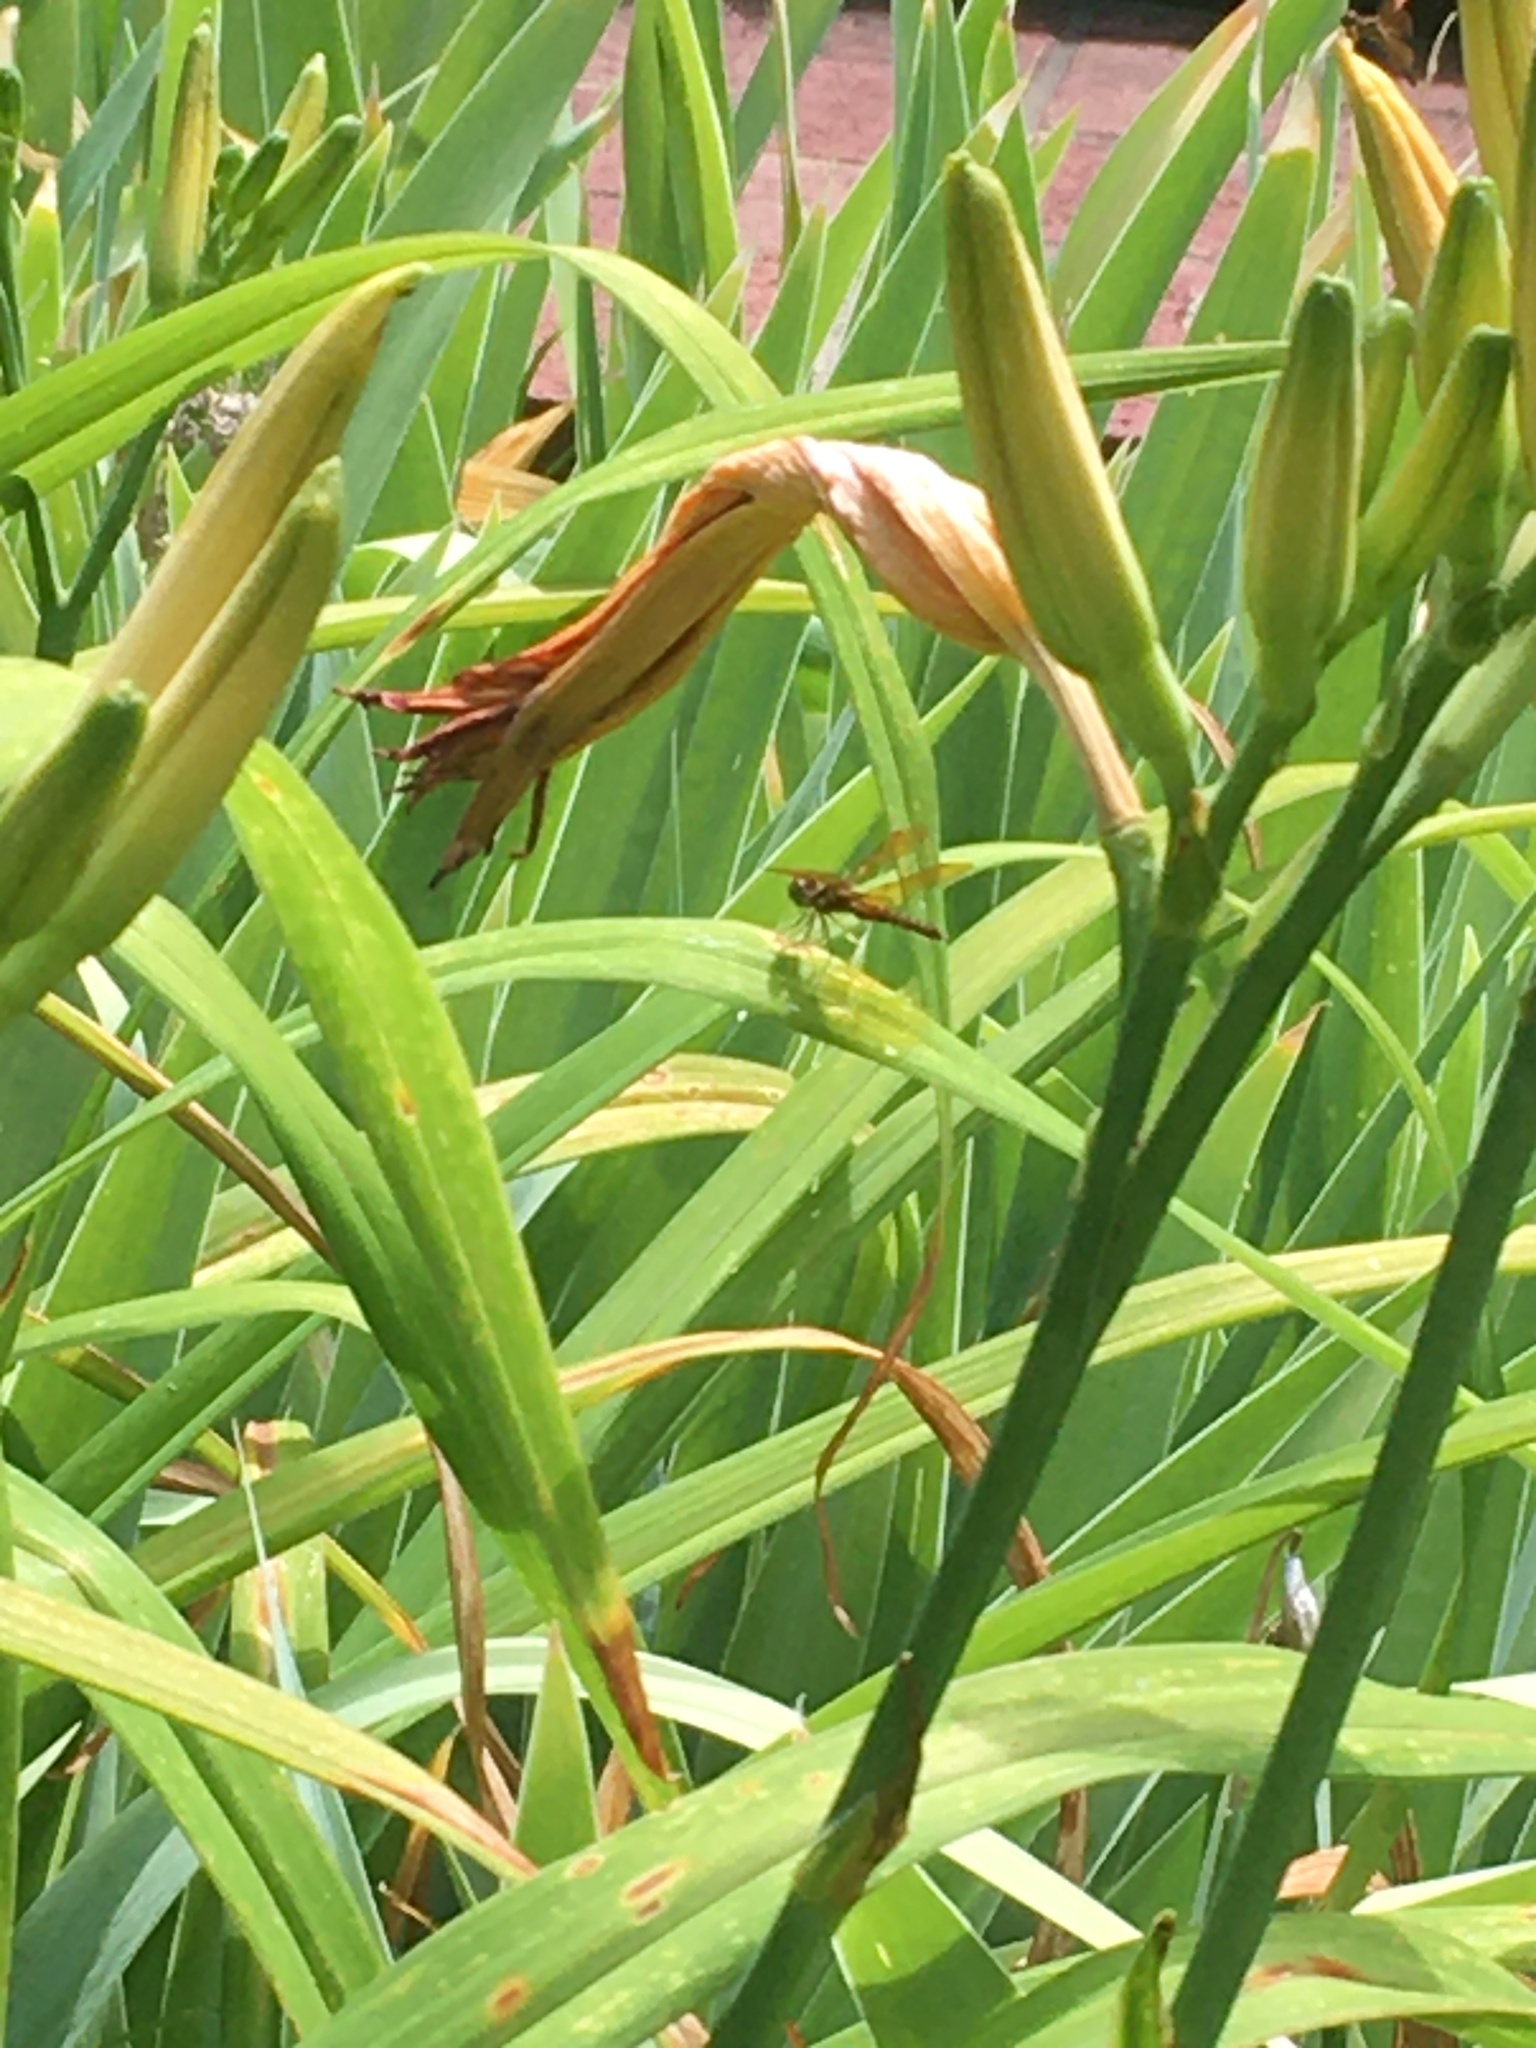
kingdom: Animalia
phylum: Arthropoda
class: Insecta
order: Odonata
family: Libellulidae
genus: Perithemis
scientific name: Perithemis tenera
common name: Eastern amberwing
